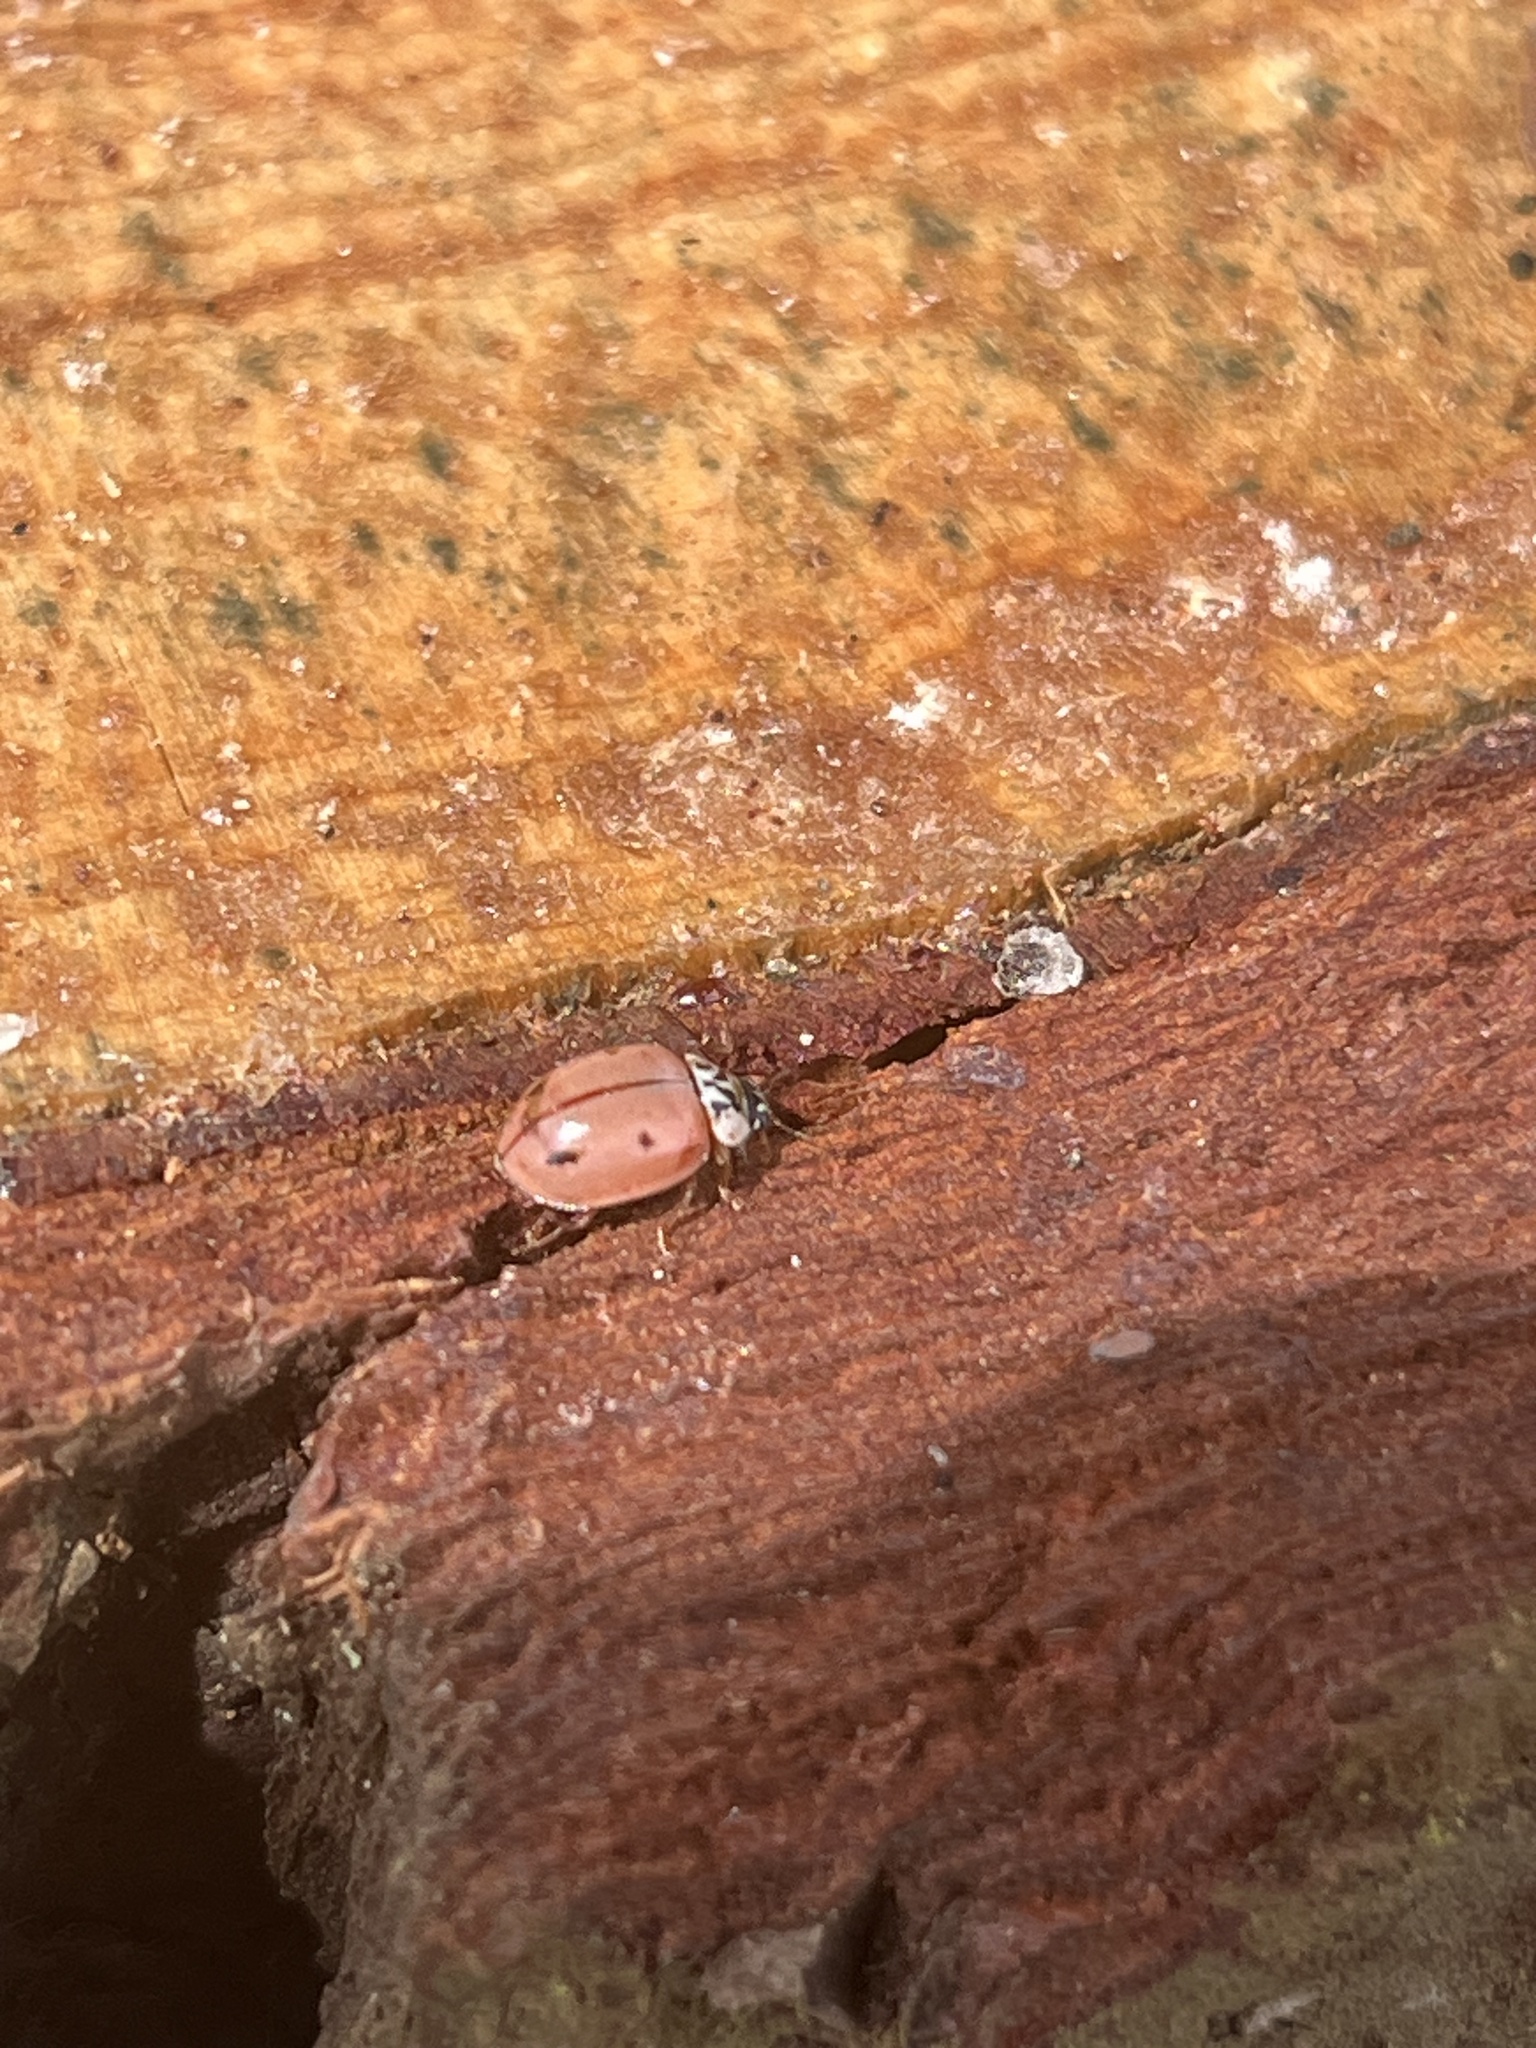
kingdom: Animalia
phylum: Arthropoda
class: Insecta
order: Coleoptera
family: Coccinellidae
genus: Mulsantina
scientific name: Mulsantina
